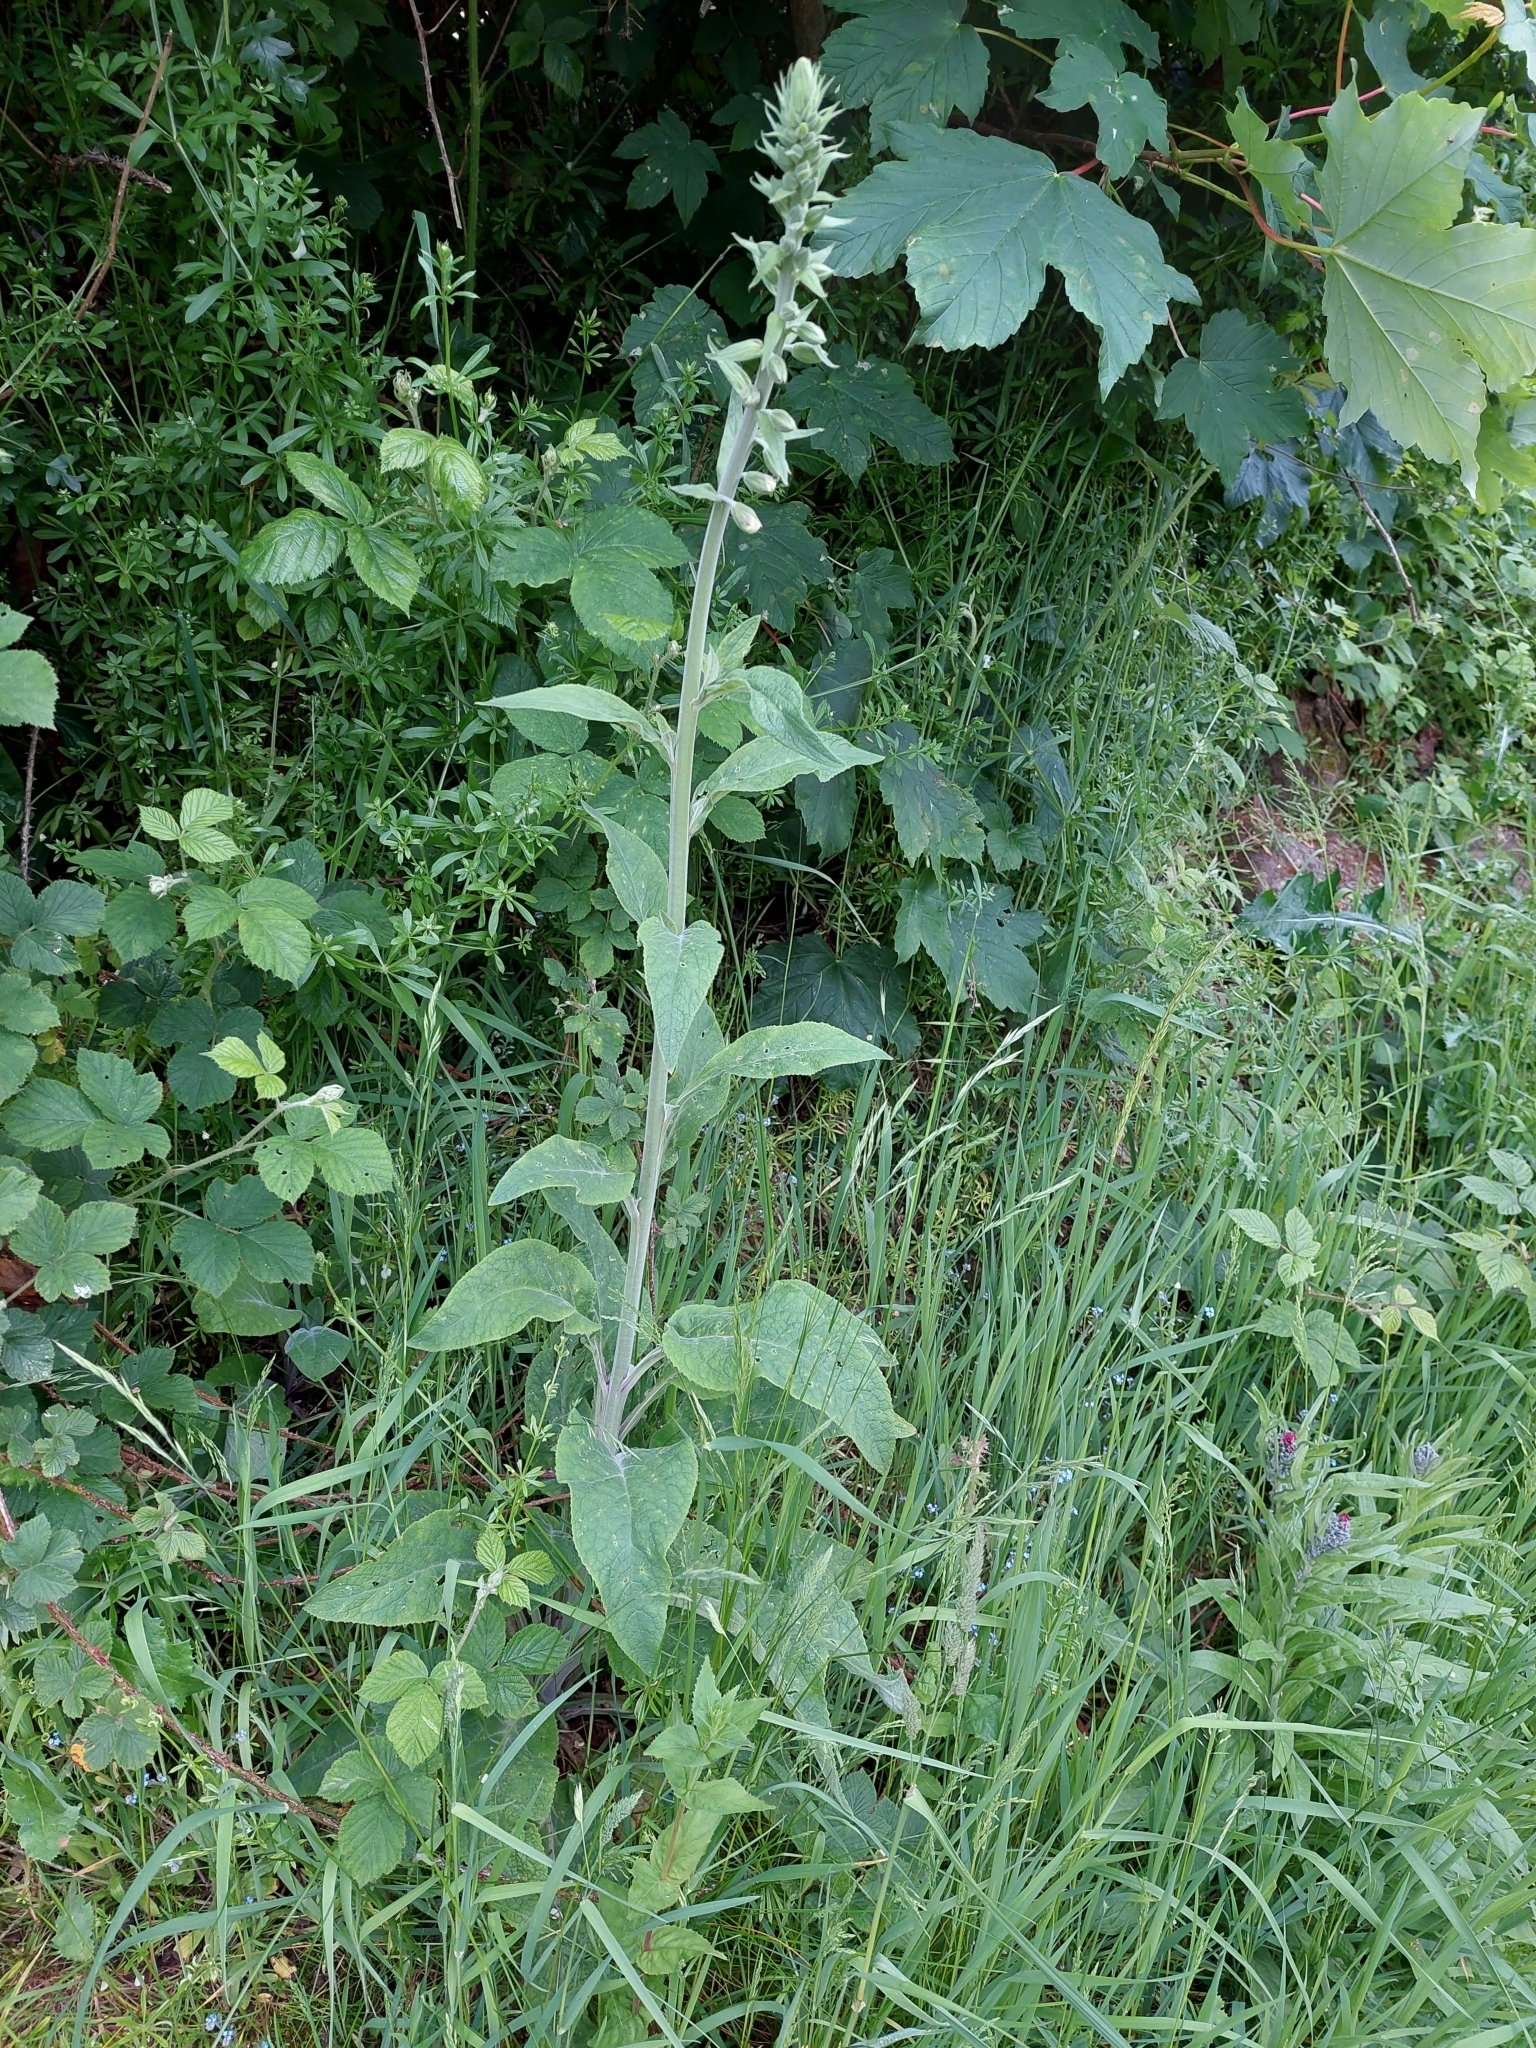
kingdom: Plantae
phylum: Tracheophyta
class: Magnoliopsida
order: Lamiales
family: Plantaginaceae
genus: Digitalis
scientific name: Digitalis purpurea
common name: Foxglove
